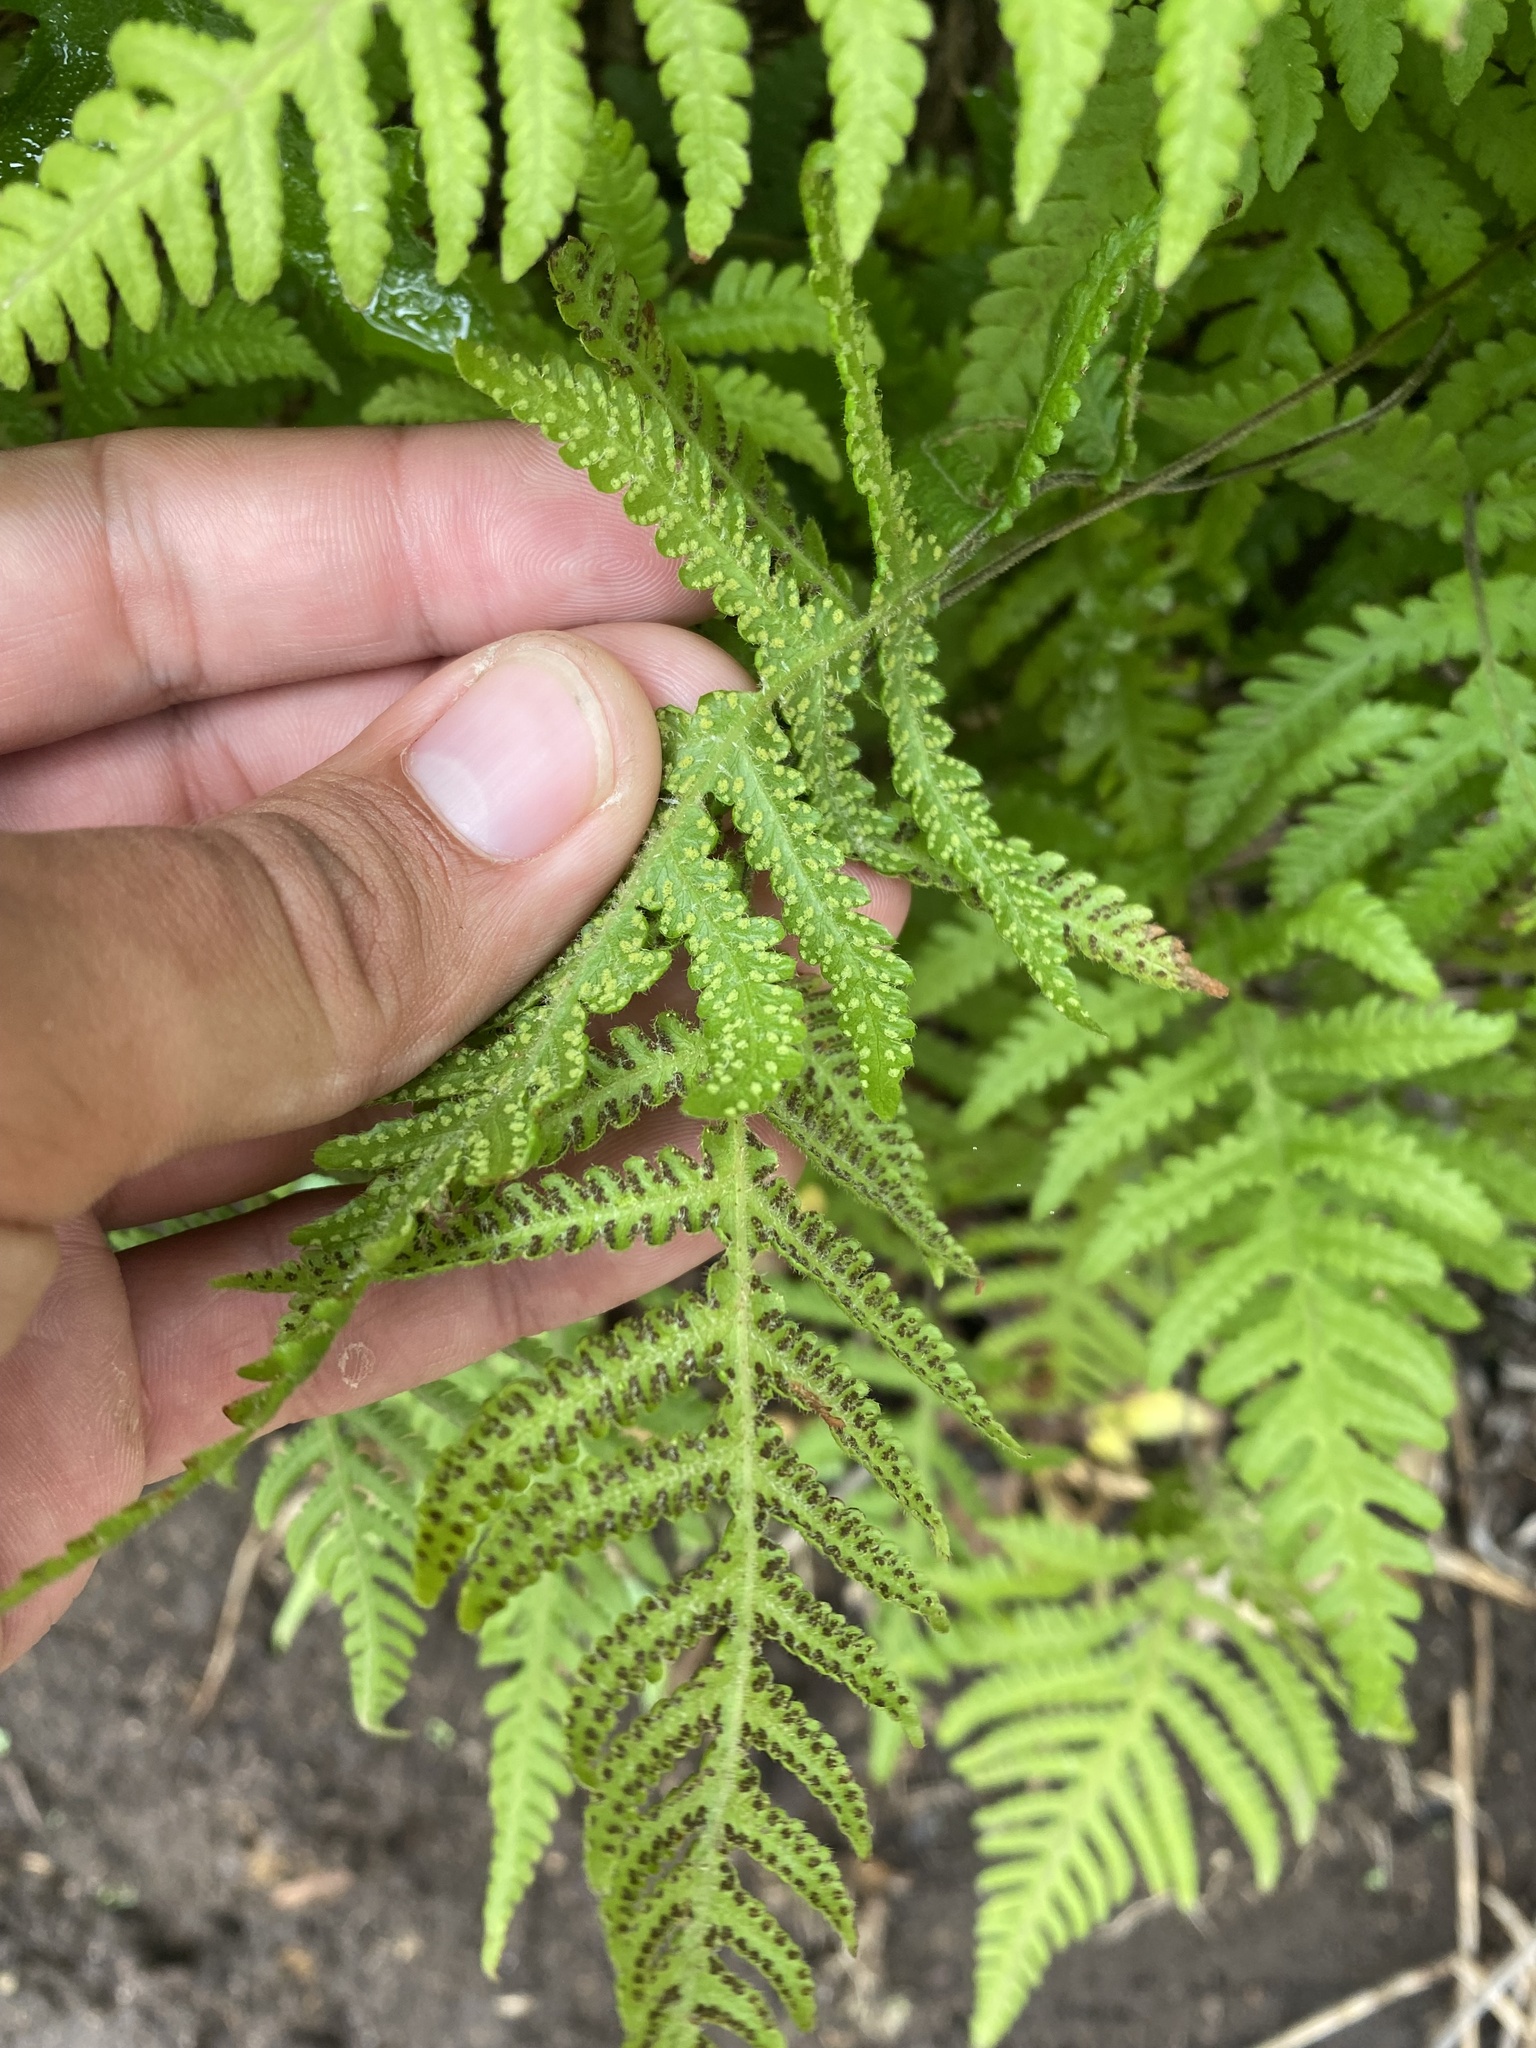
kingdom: Plantae
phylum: Tracheophyta
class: Polypodiopsida
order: Polypodiales
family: Thelypteridaceae
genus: Phegopteris
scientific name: Phegopteris connectilis
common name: Beech fern
